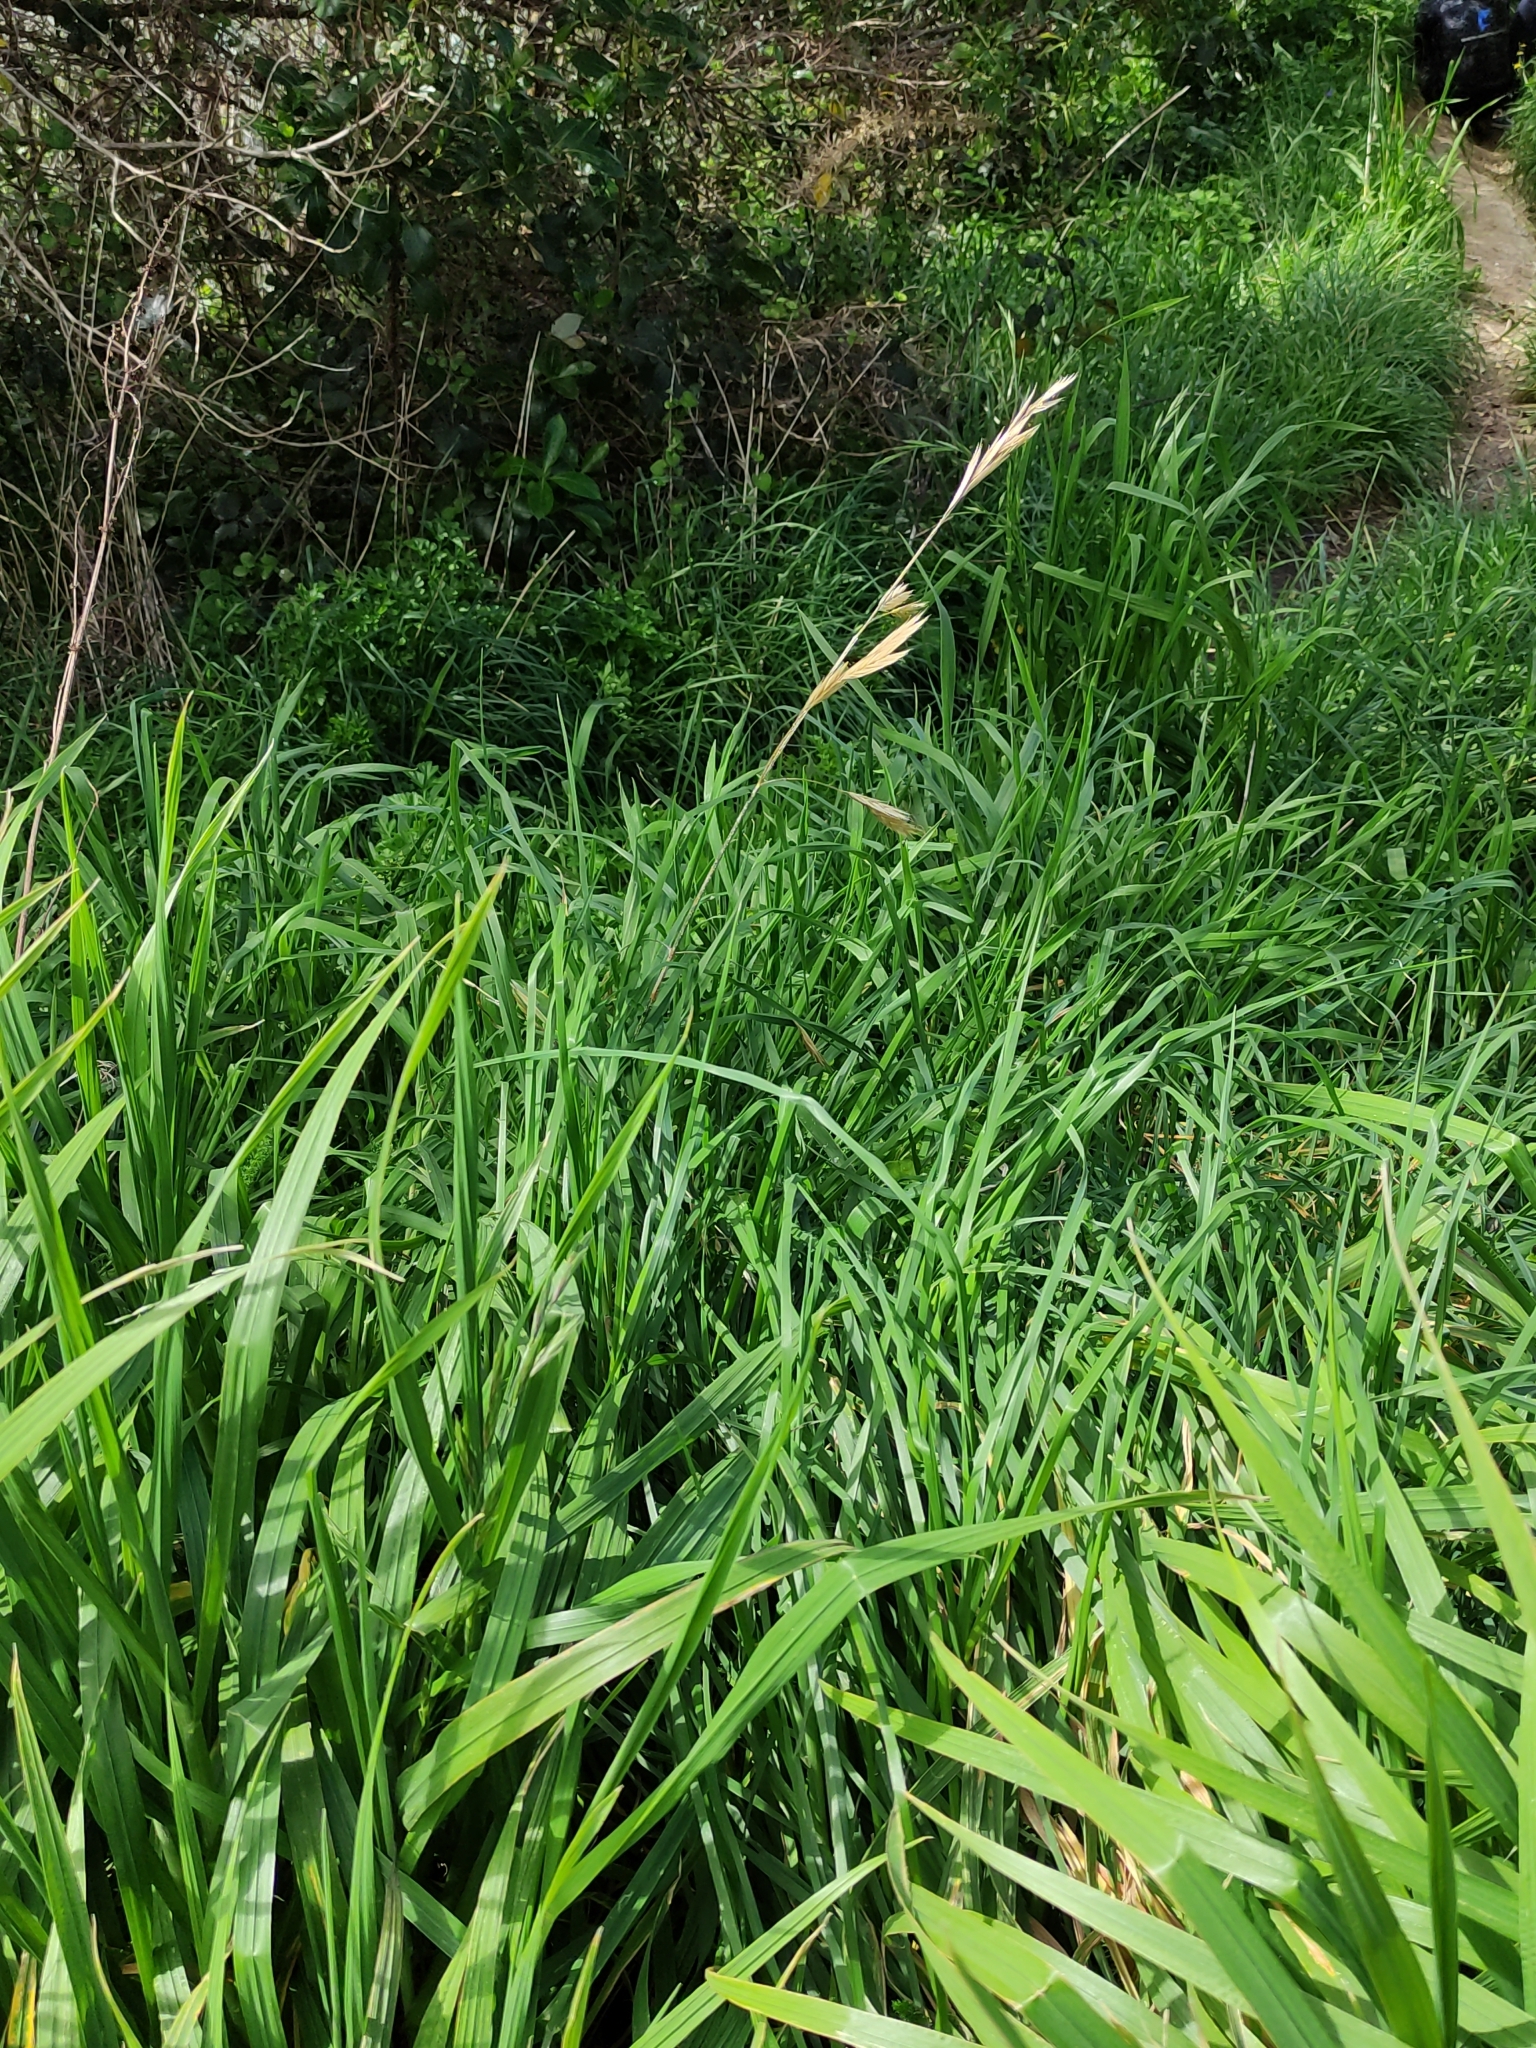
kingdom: Plantae
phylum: Tracheophyta
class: Liliopsida
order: Poales
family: Poaceae
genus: Bromus
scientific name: Bromus catharticus
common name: Rescuegrass
